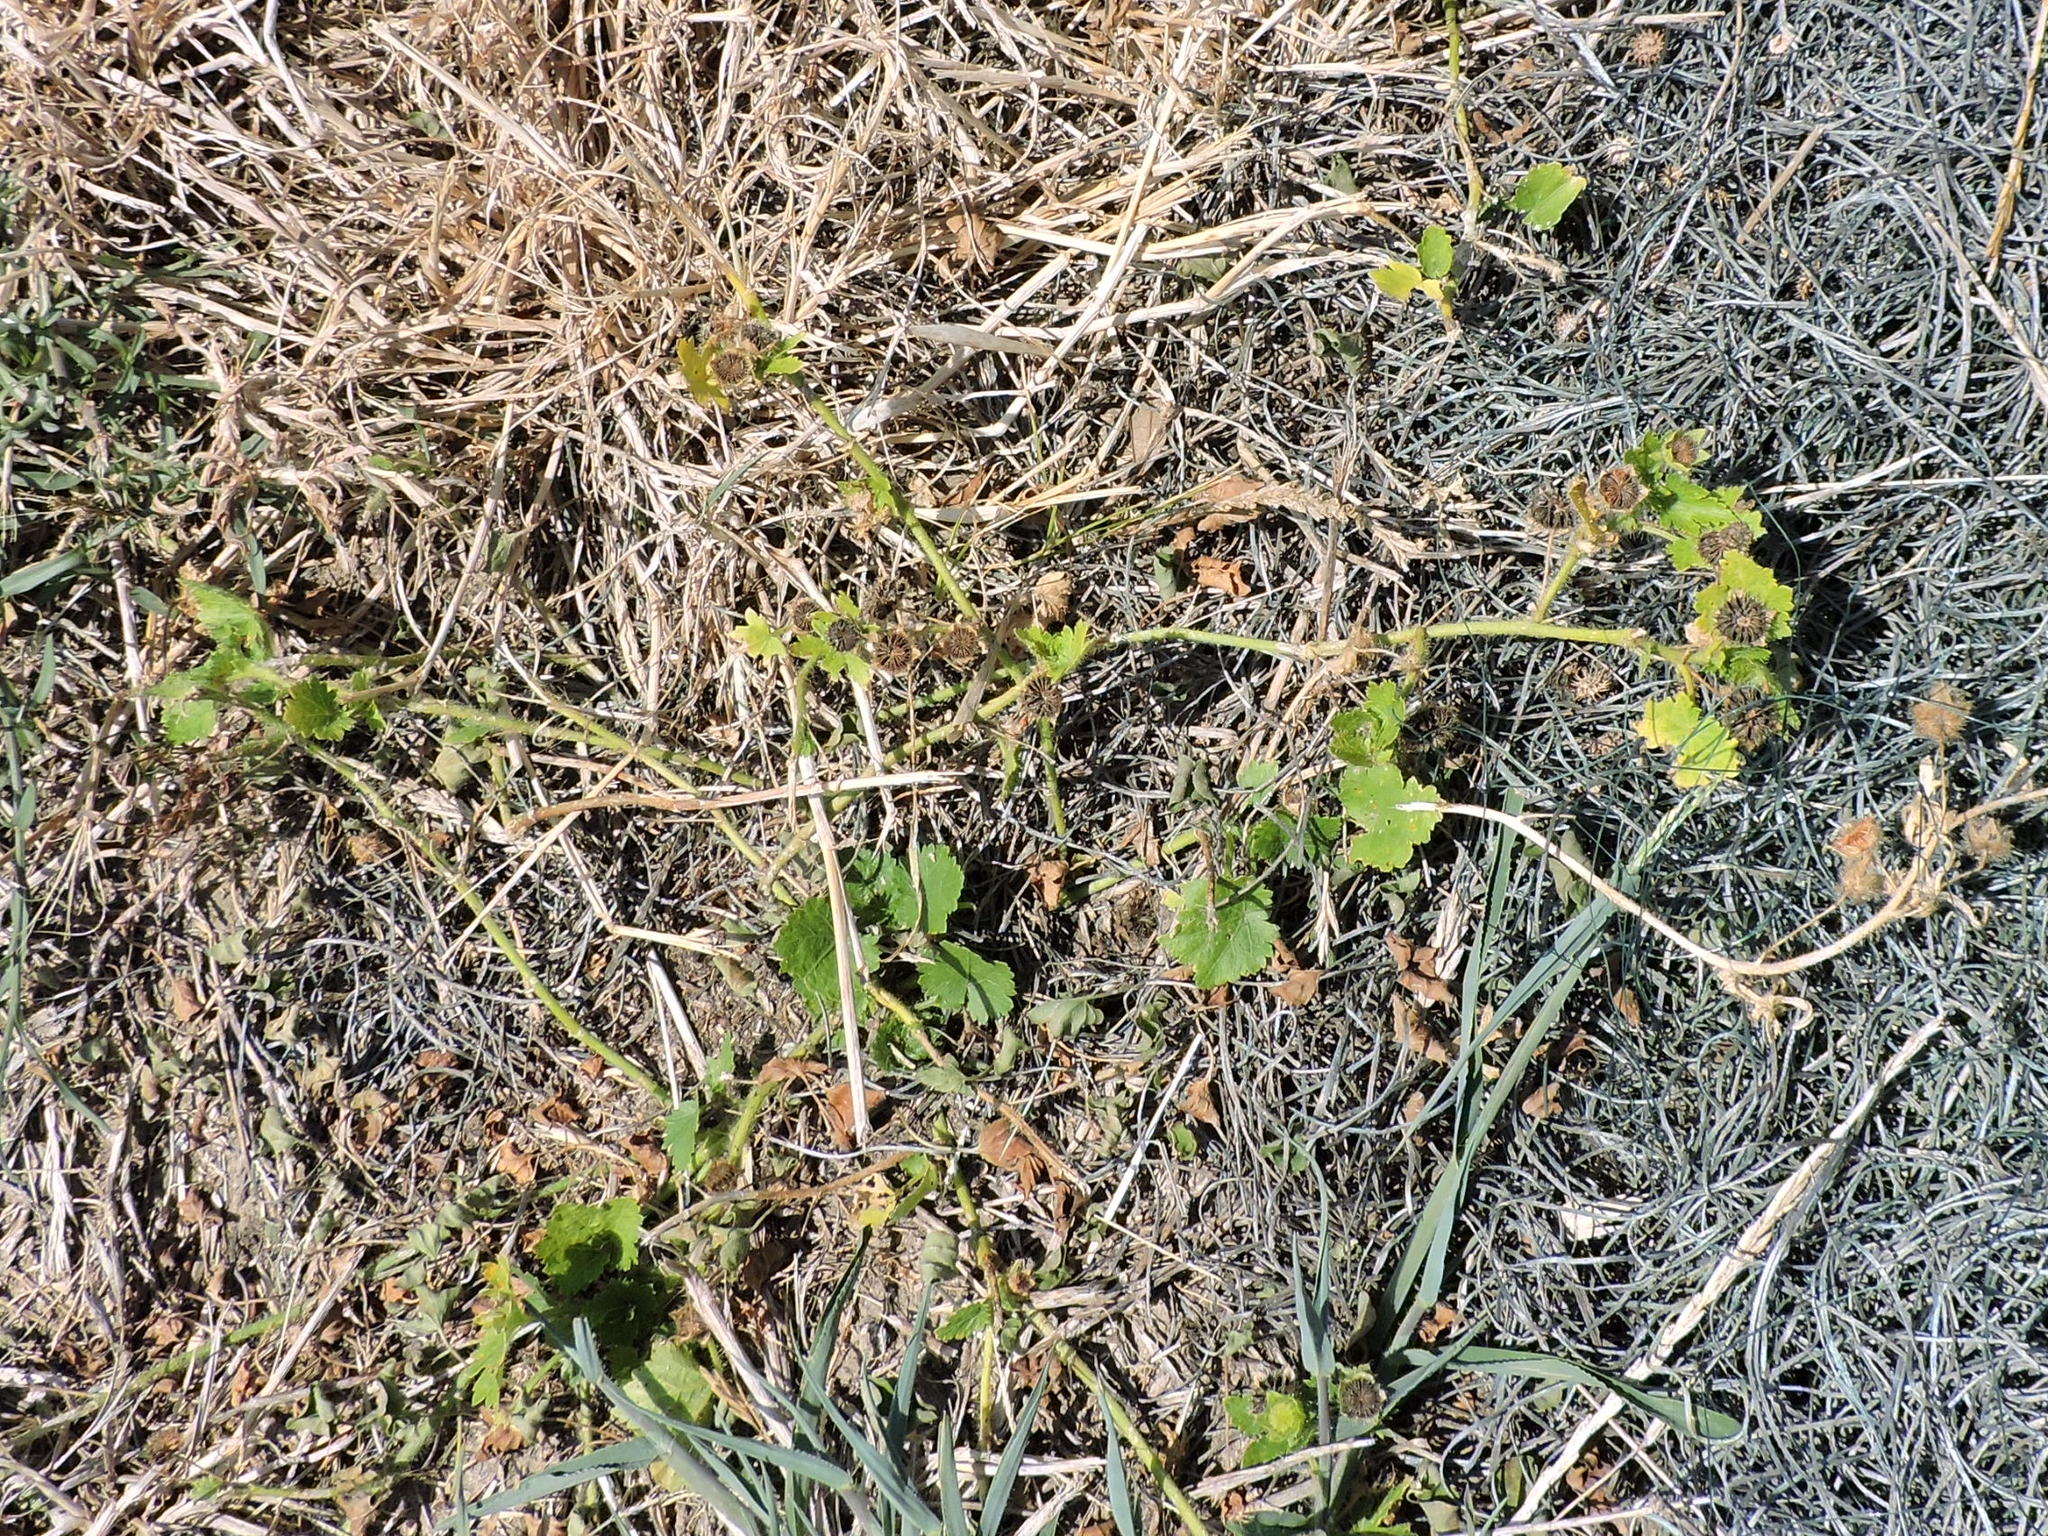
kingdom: Plantae
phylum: Tracheophyta
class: Magnoliopsida
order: Malvales
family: Malvaceae
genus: Modiola
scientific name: Modiola caroliniana
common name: Carolina bristlemallow
